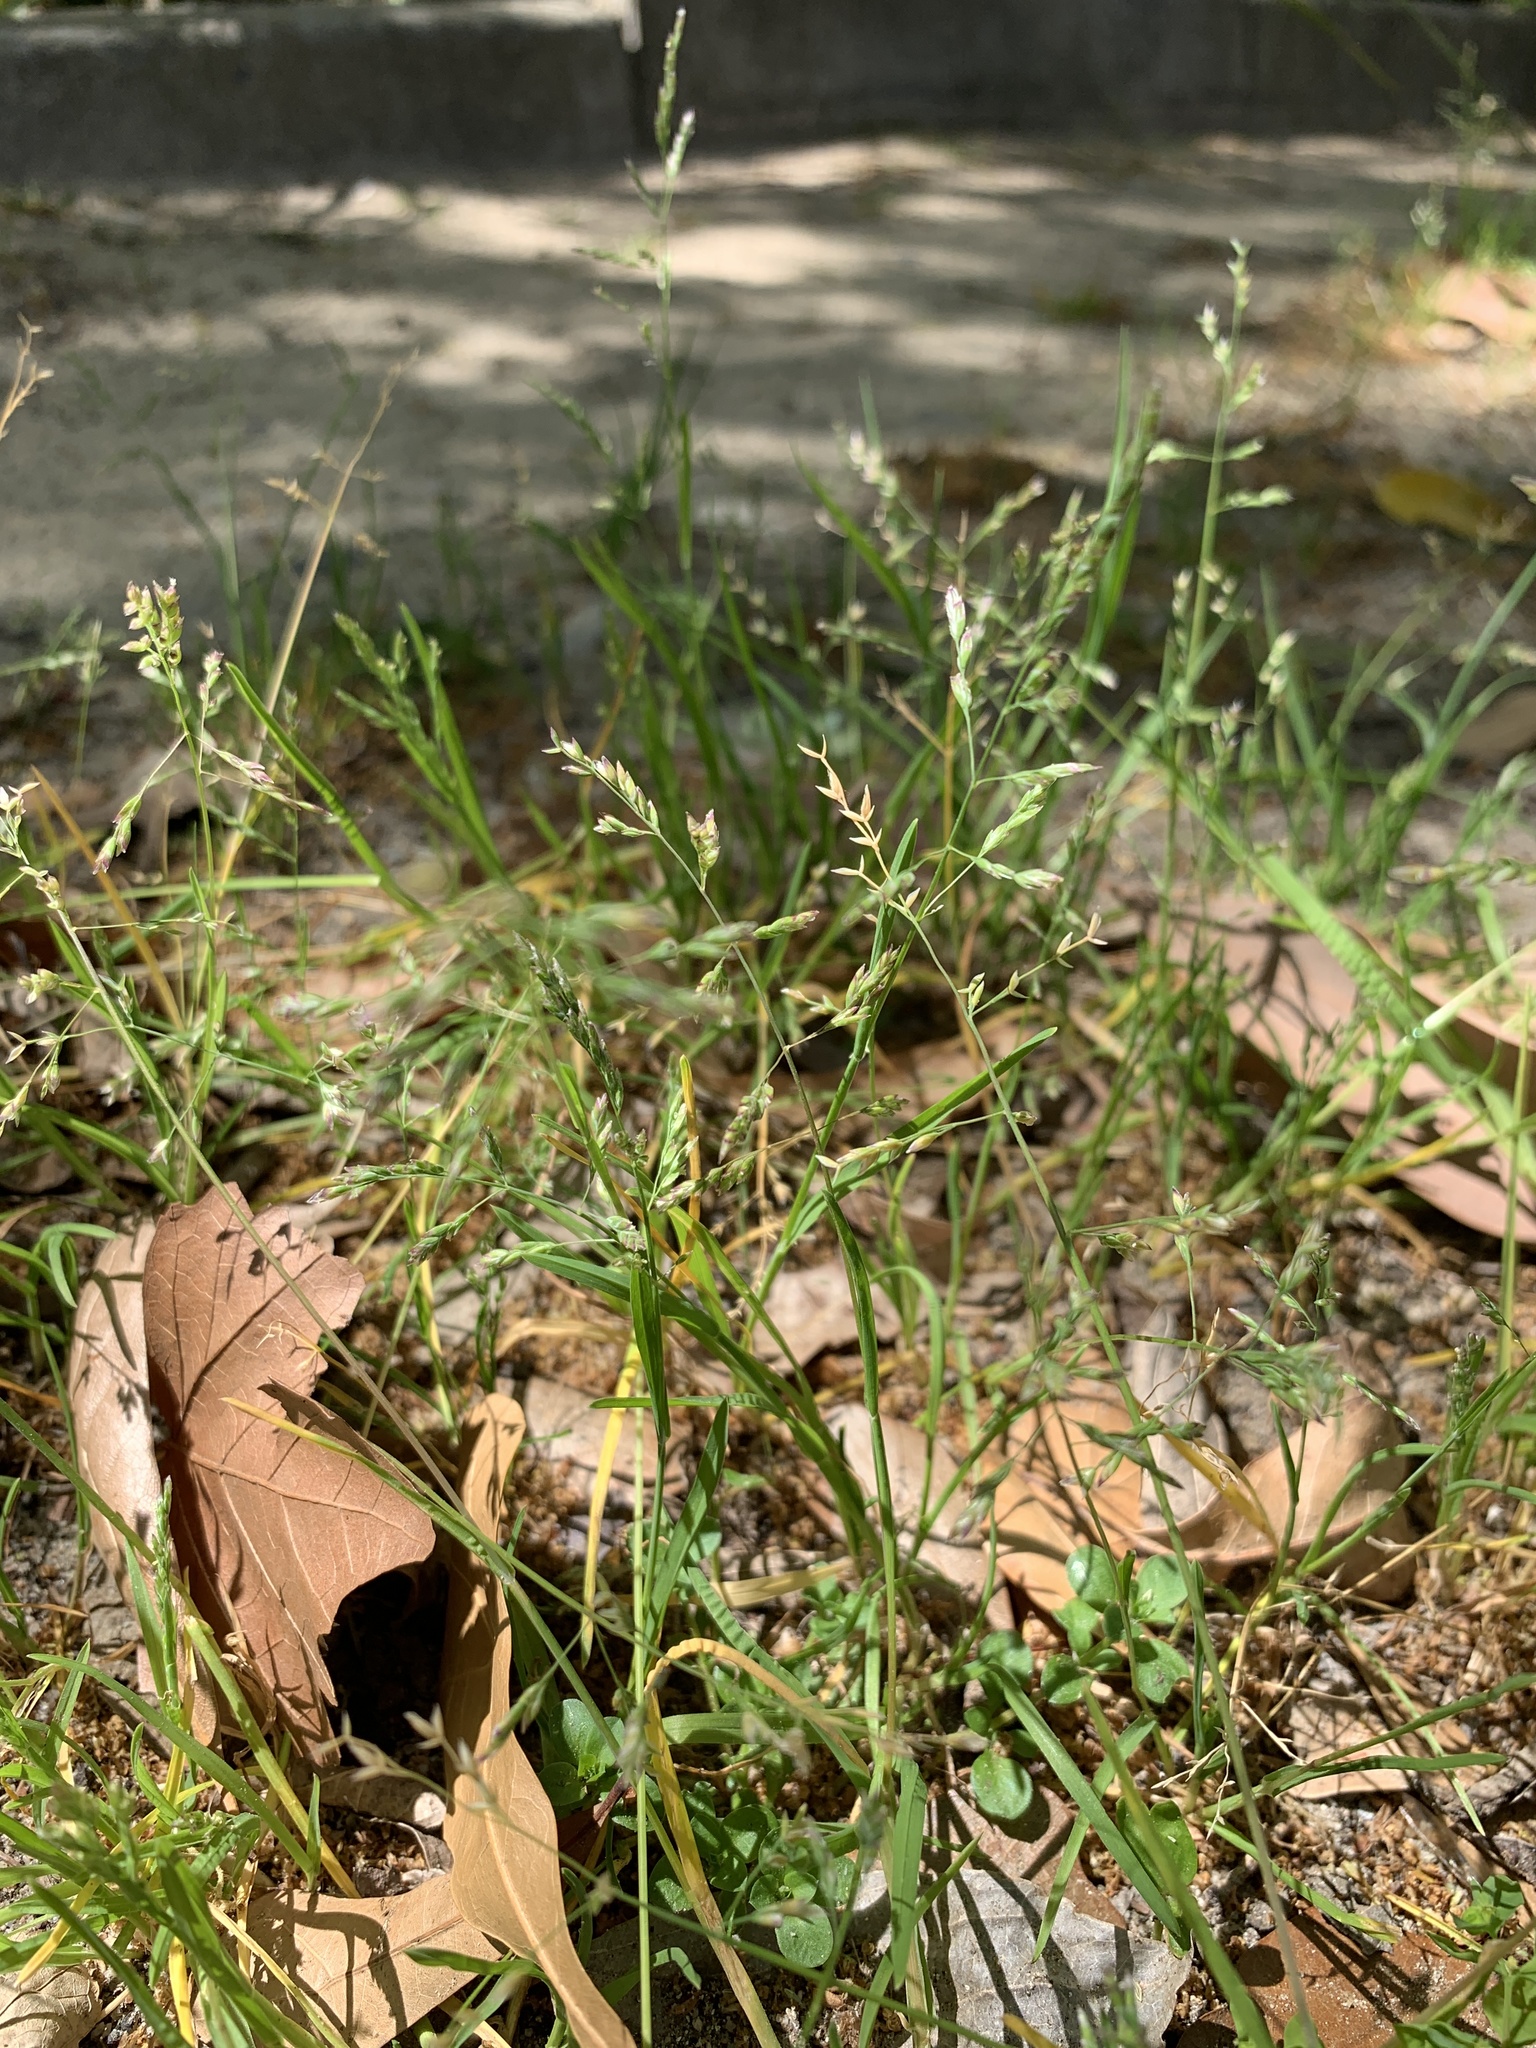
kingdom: Plantae
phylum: Tracheophyta
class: Liliopsida
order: Poales
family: Poaceae
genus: Poa
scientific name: Poa annua
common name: Annual bluegrass
